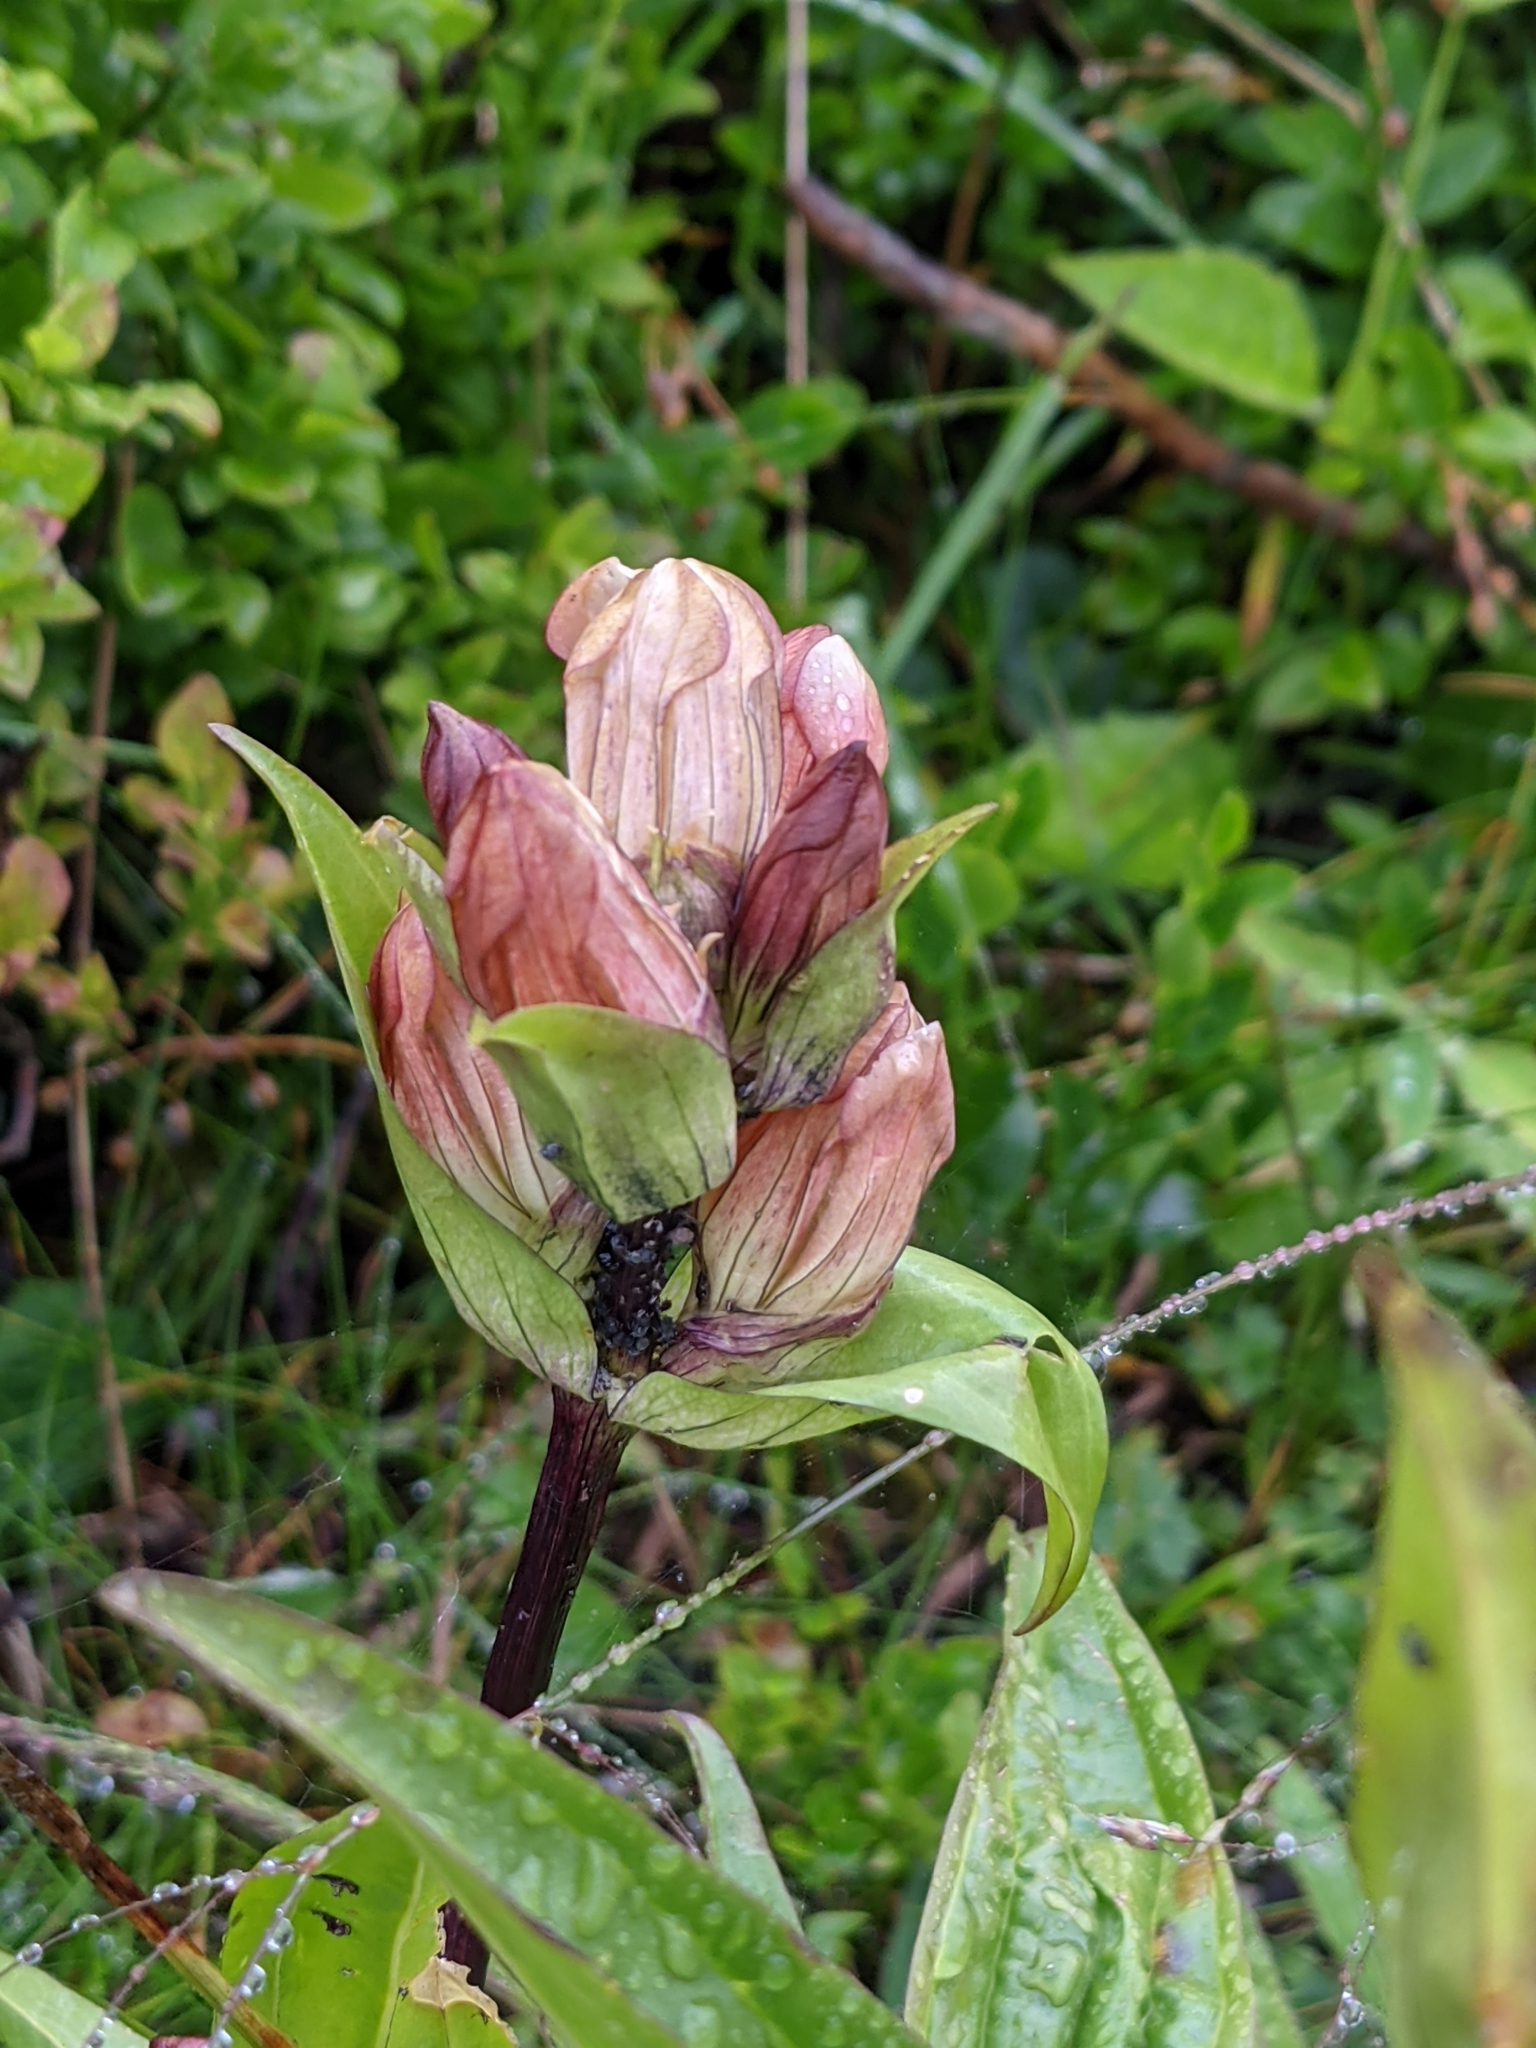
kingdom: Plantae
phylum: Tracheophyta
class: Magnoliopsida
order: Gentianales
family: Gentianaceae
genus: Gentiana
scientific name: Gentiana purpurea
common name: Purple gentian
